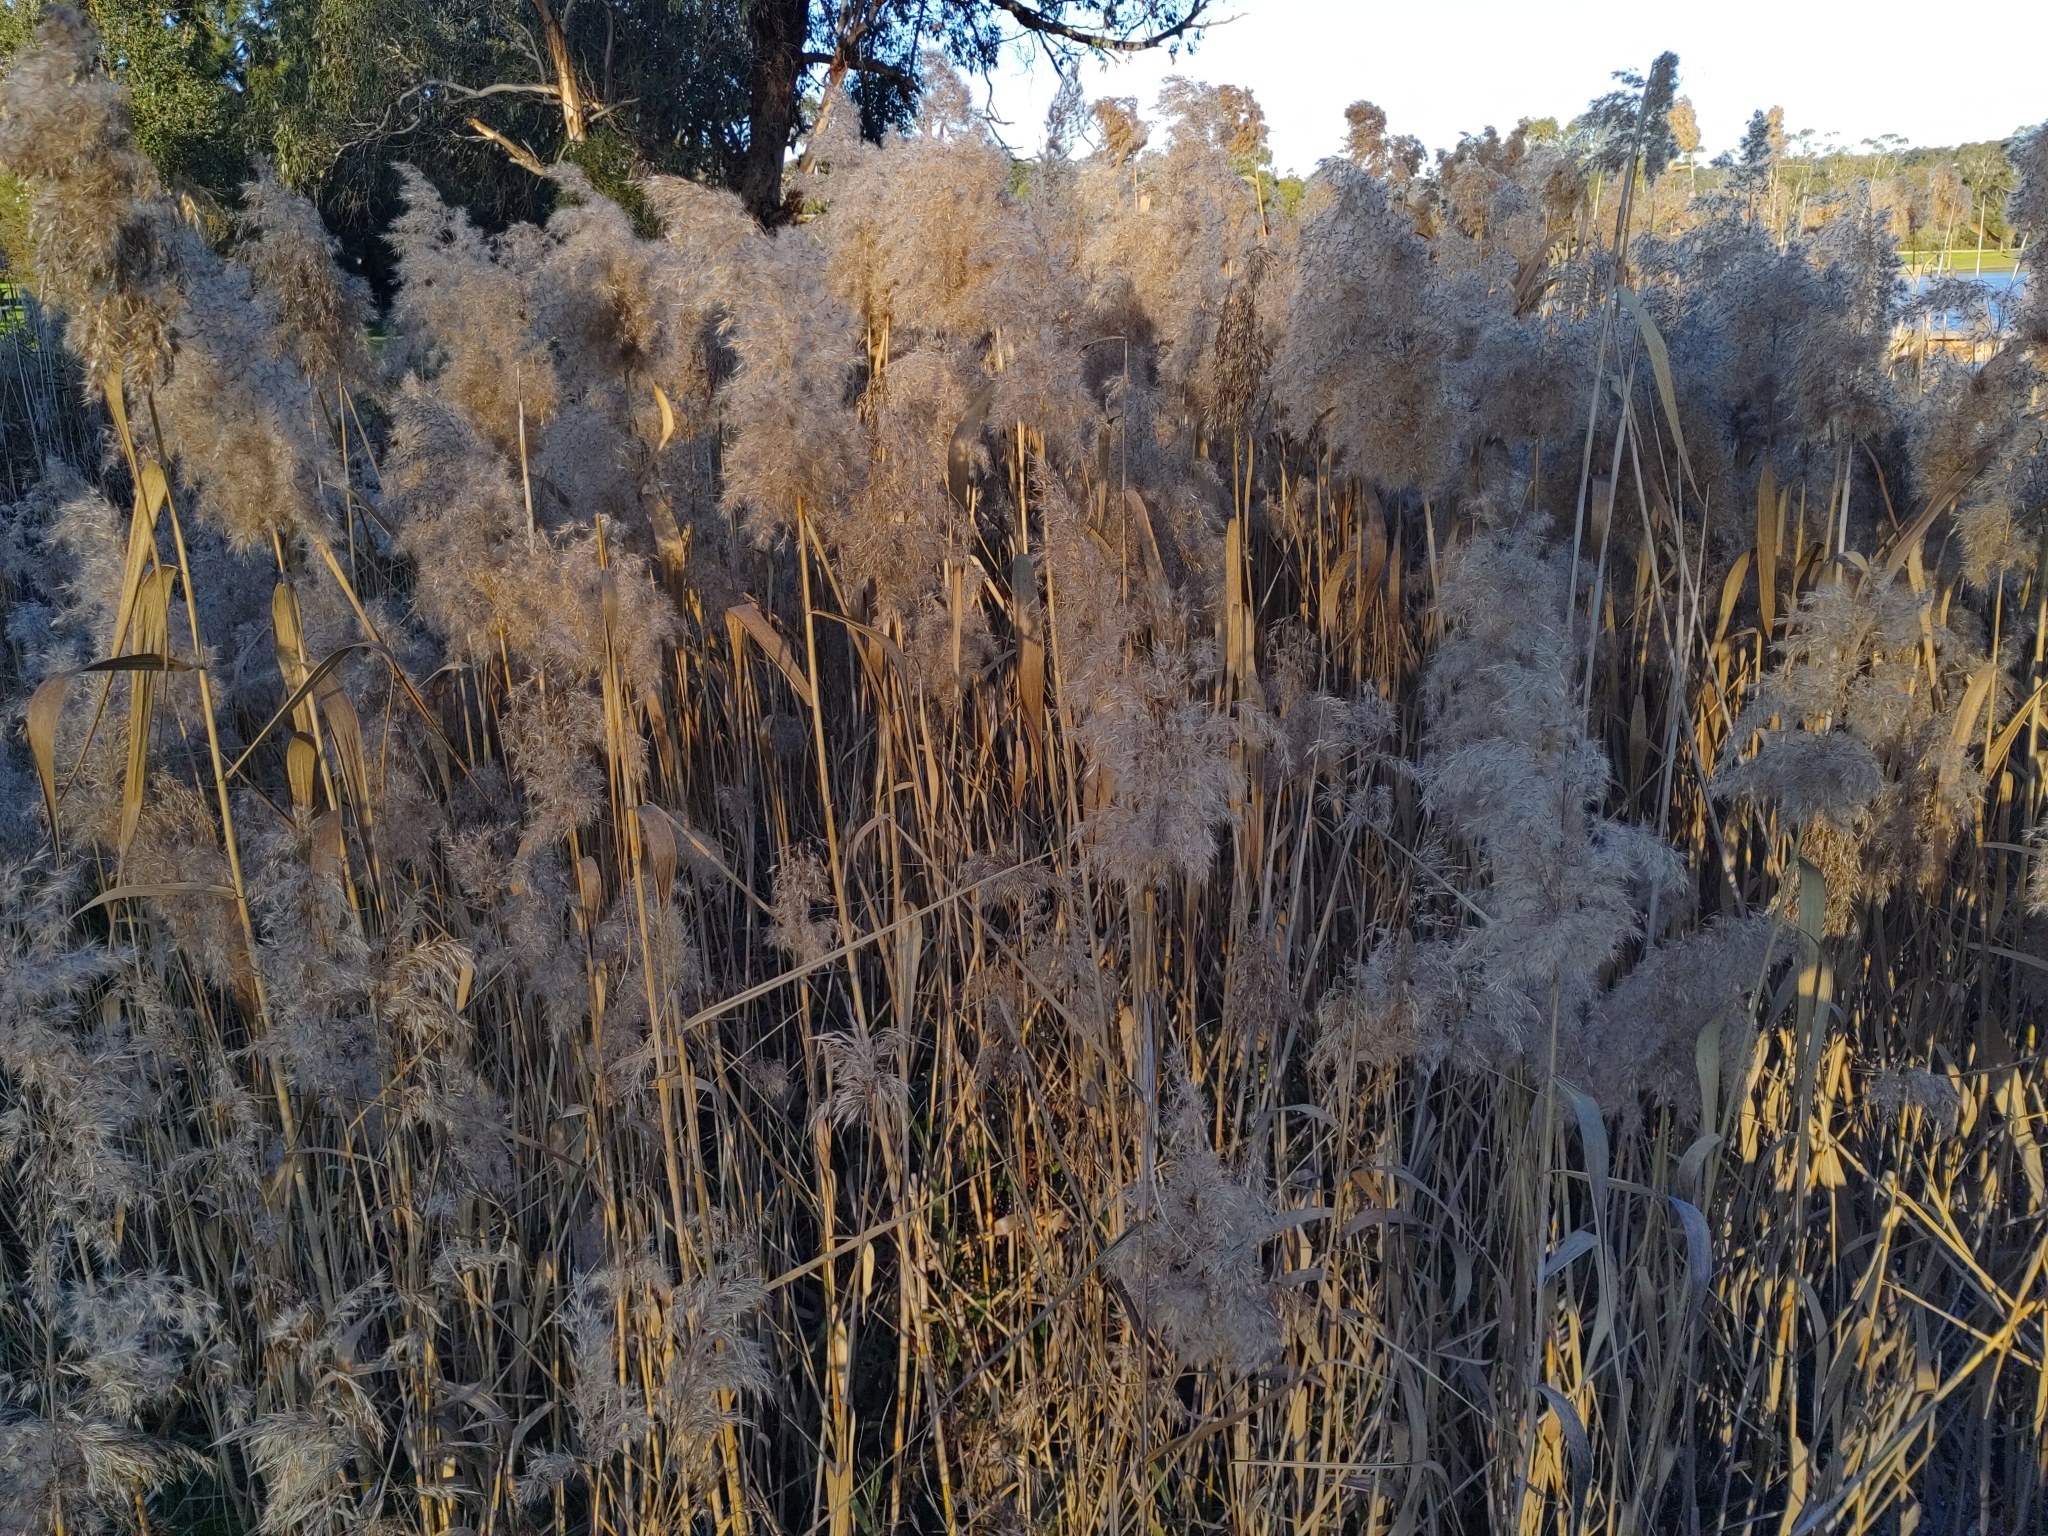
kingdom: Plantae
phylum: Tracheophyta
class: Liliopsida
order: Poales
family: Poaceae
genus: Phragmites
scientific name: Phragmites australis
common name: Common reed
